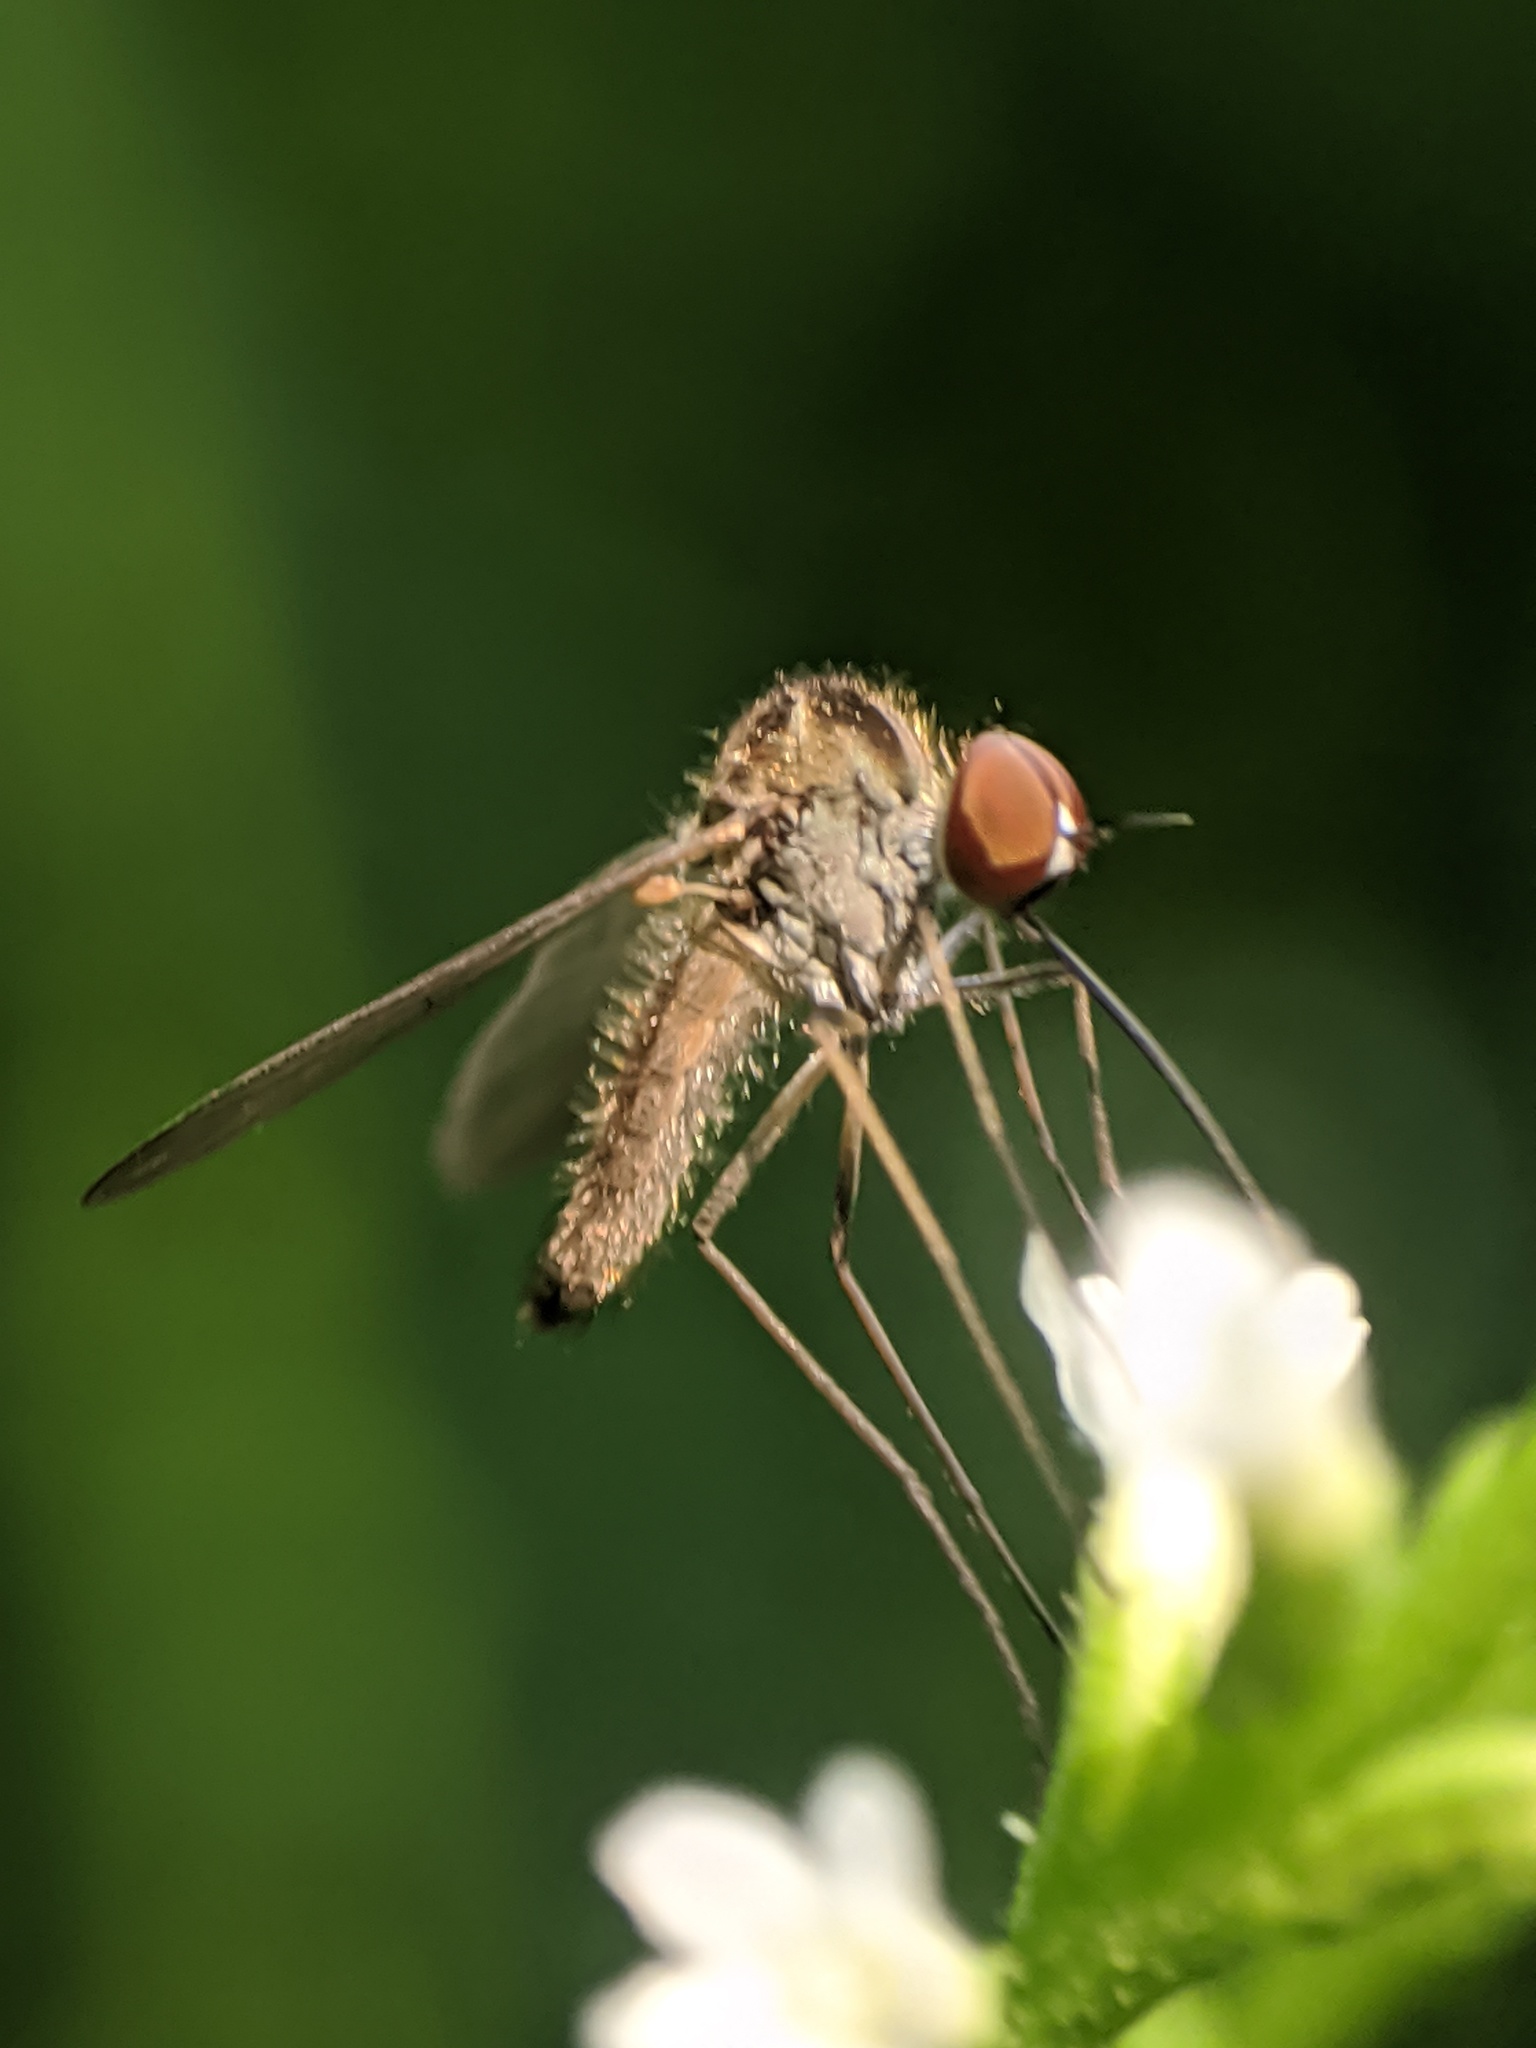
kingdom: Animalia
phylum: Arthropoda
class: Insecta
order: Diptera
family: Bombyliidae
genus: Geron
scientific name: Geron
